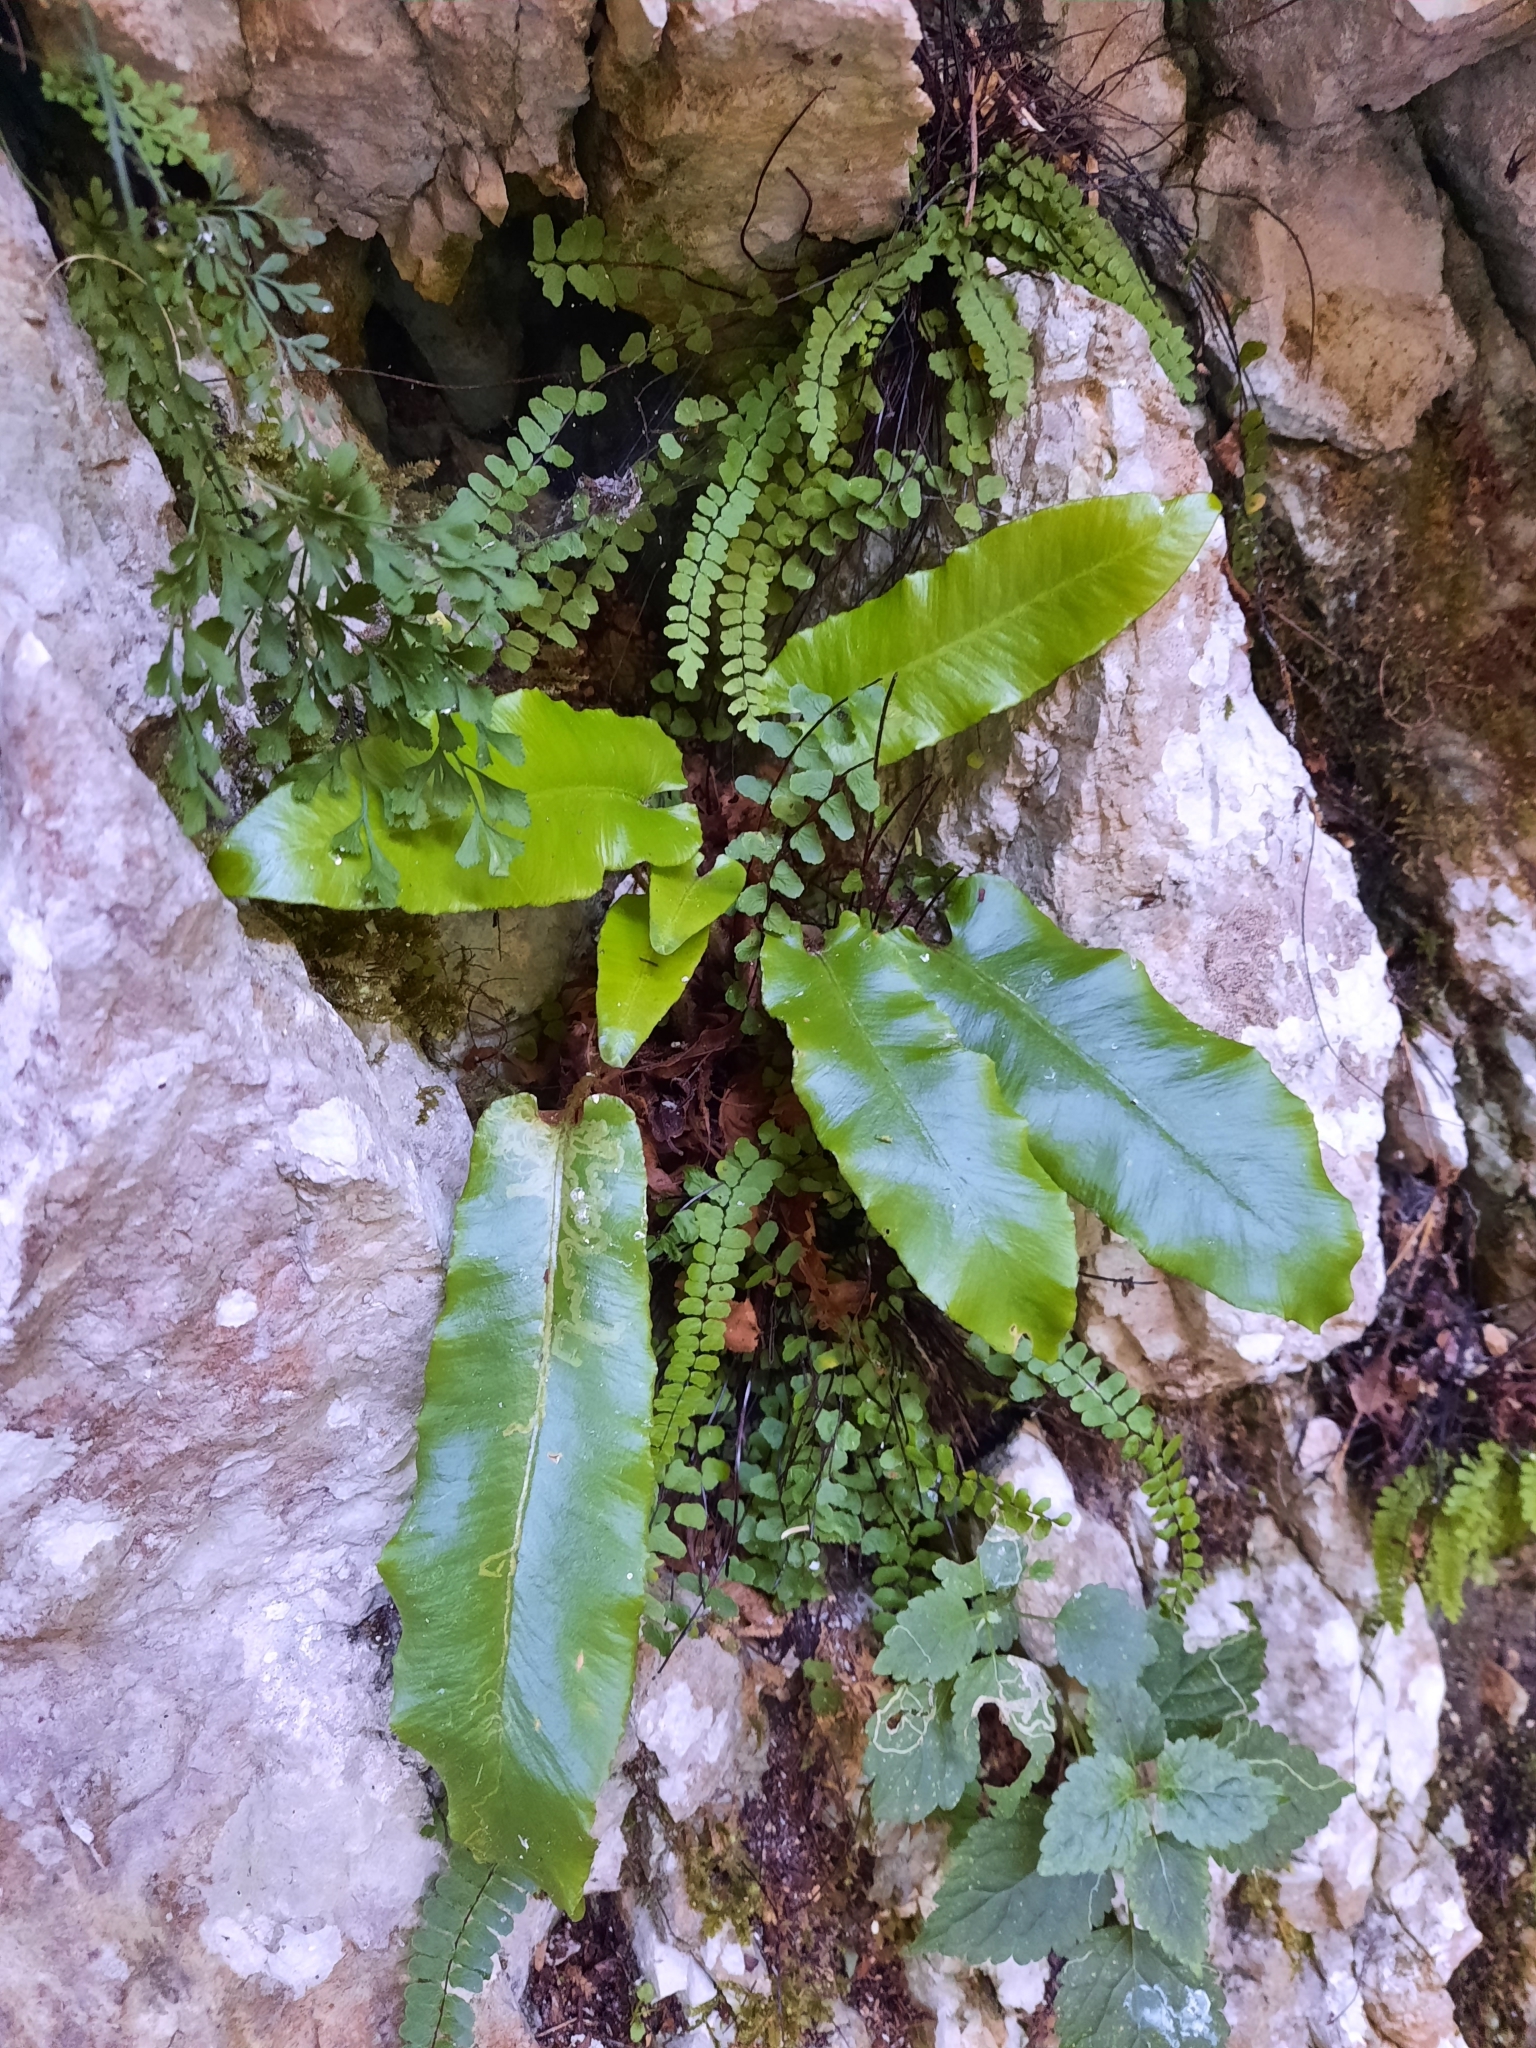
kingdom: Plantae
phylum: Tracheophyta
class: Polypodiopsida
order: Polypodiales
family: Aspleniaceae
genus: Asplenium
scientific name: Asplenium scolopendrium
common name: Hart's-tongue fern
